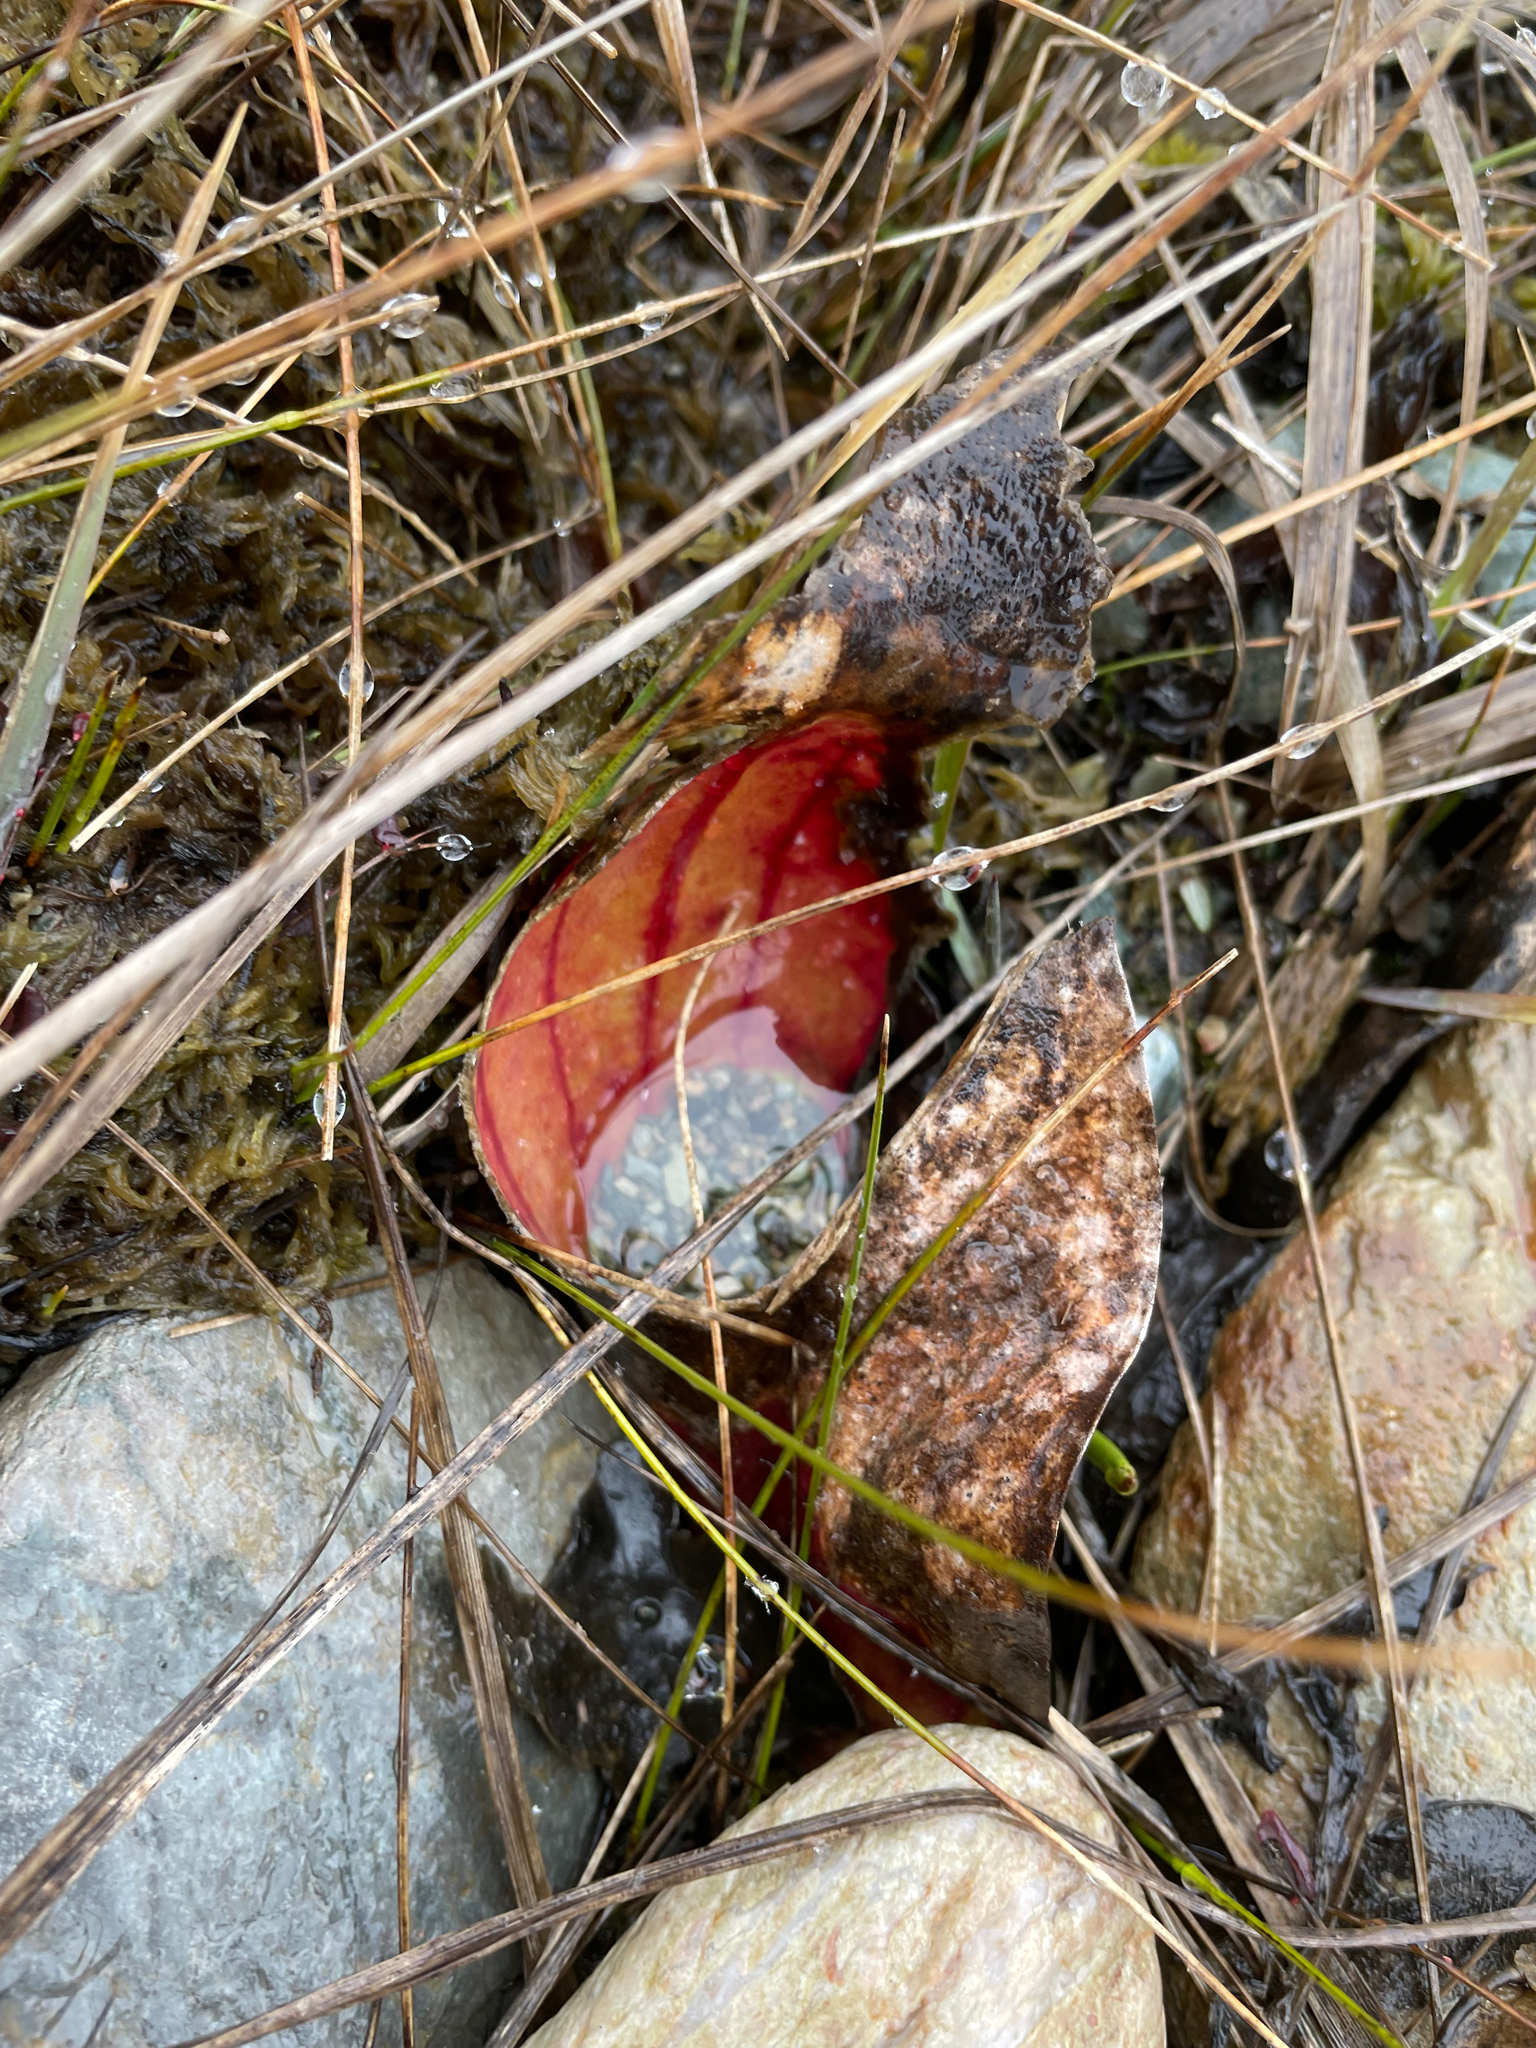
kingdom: Plantae
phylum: Tracheophyta
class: Magnoliopsida
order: Ericales
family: Sarraceniaceae
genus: Sarracenia
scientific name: Sarracenia purpurea
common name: Pitcherplant
